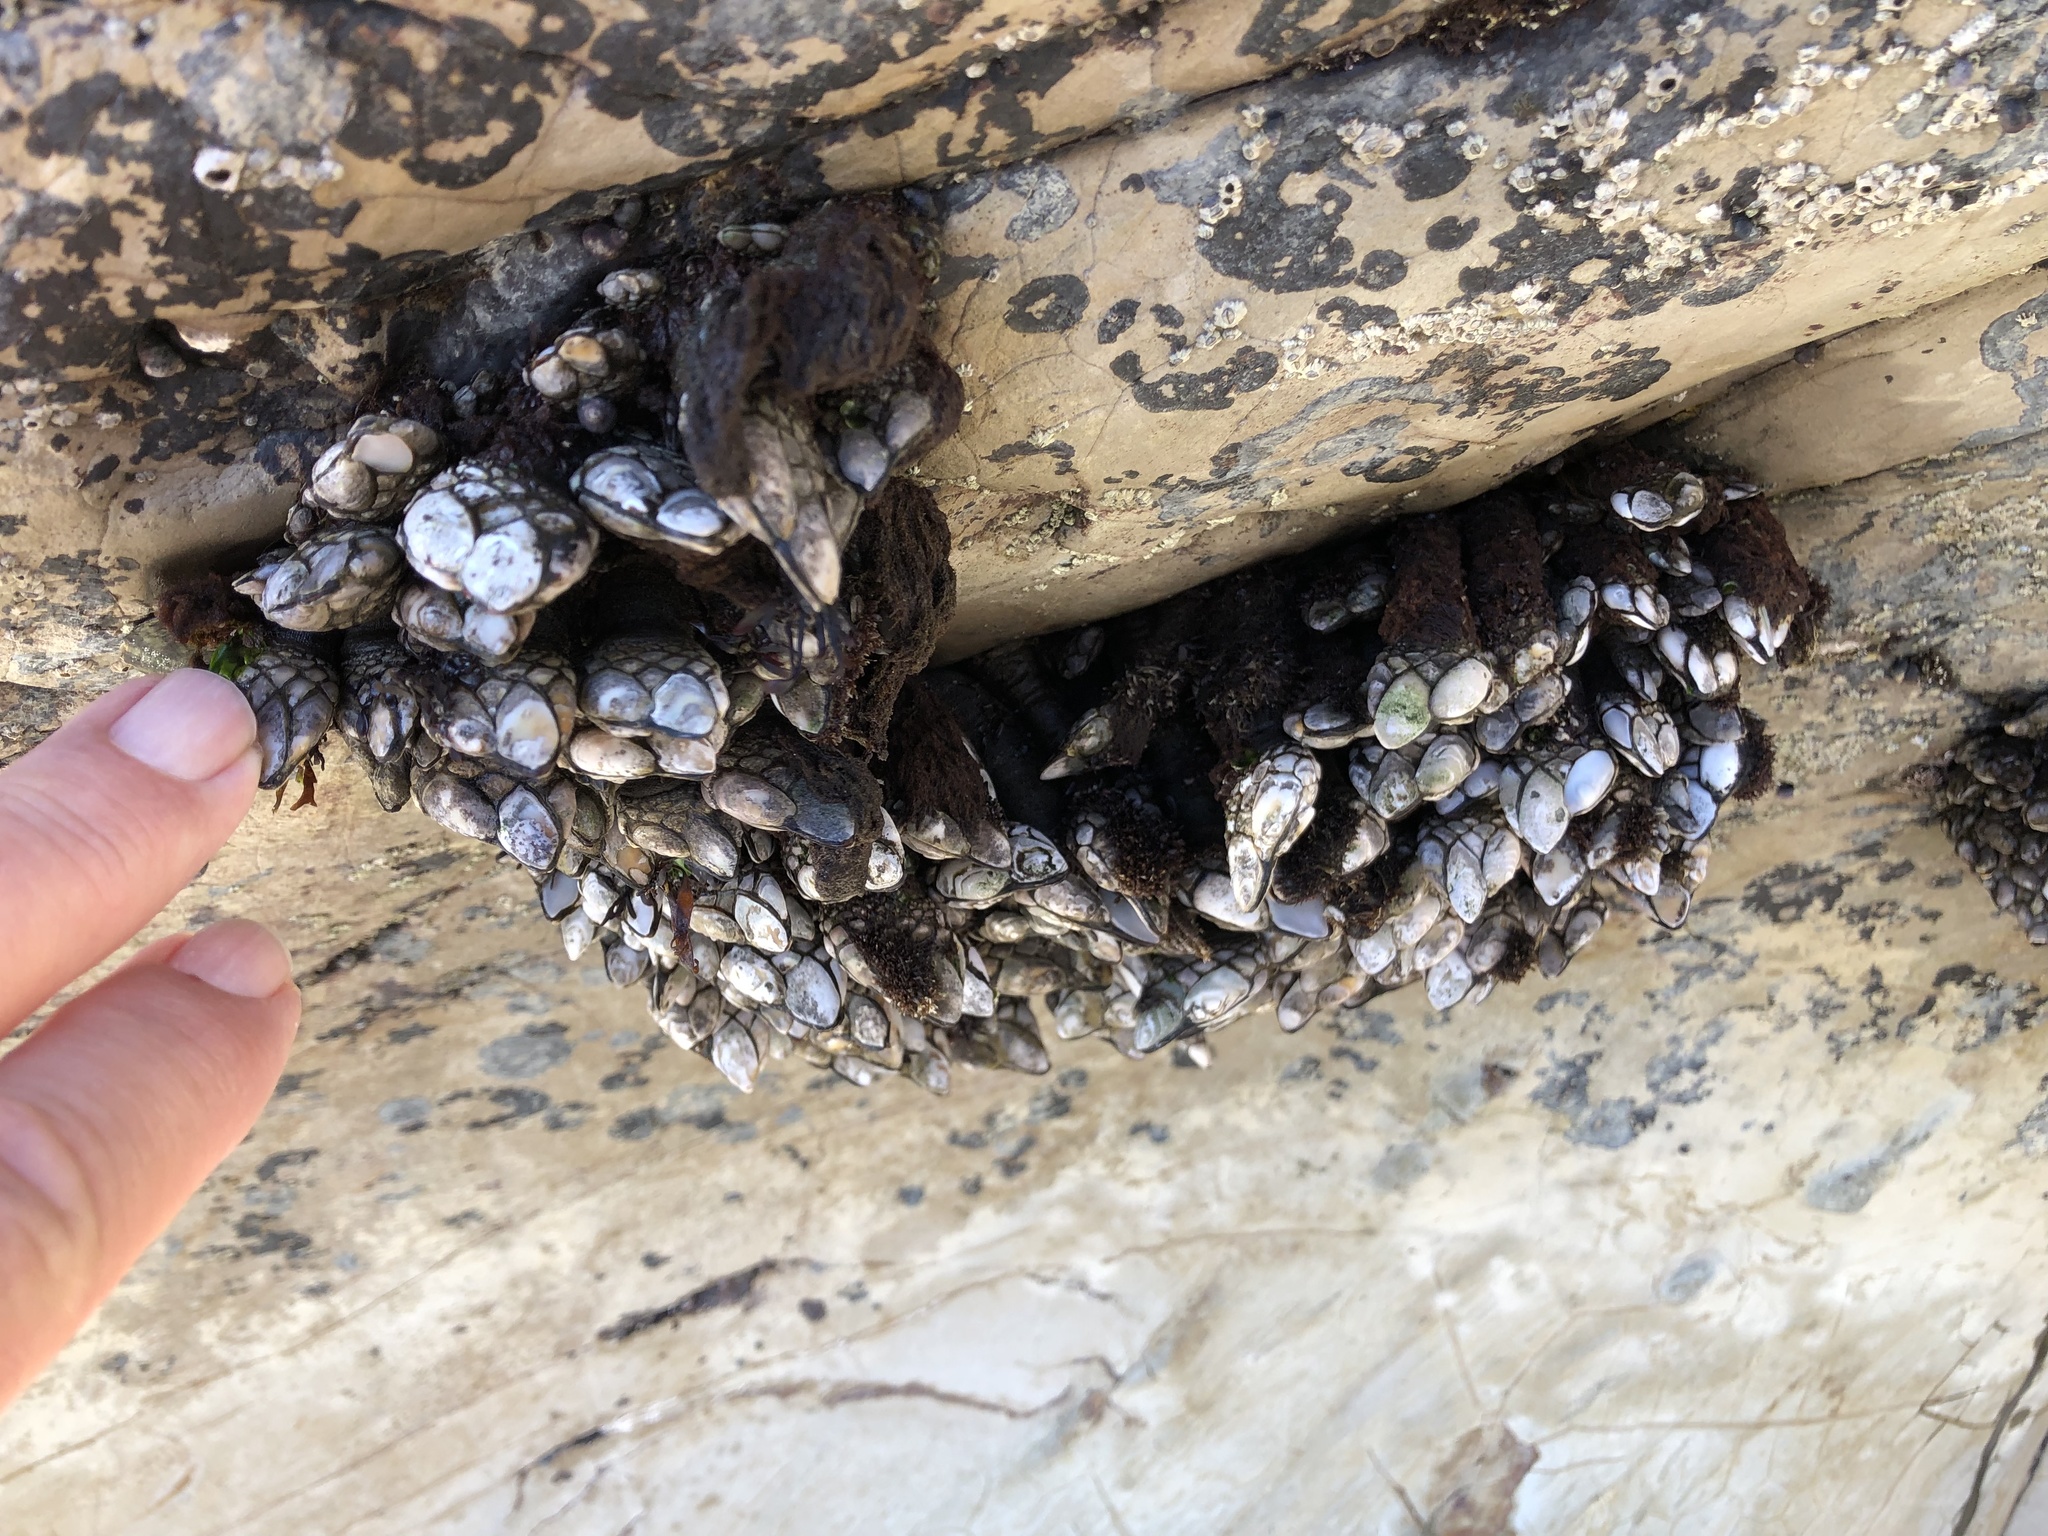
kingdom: Animalia
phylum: Arthropoda
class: Maxillopoda
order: Pedunculata
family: Pollicipedidae
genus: Pollicipes
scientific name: Pollicipes polymerus
